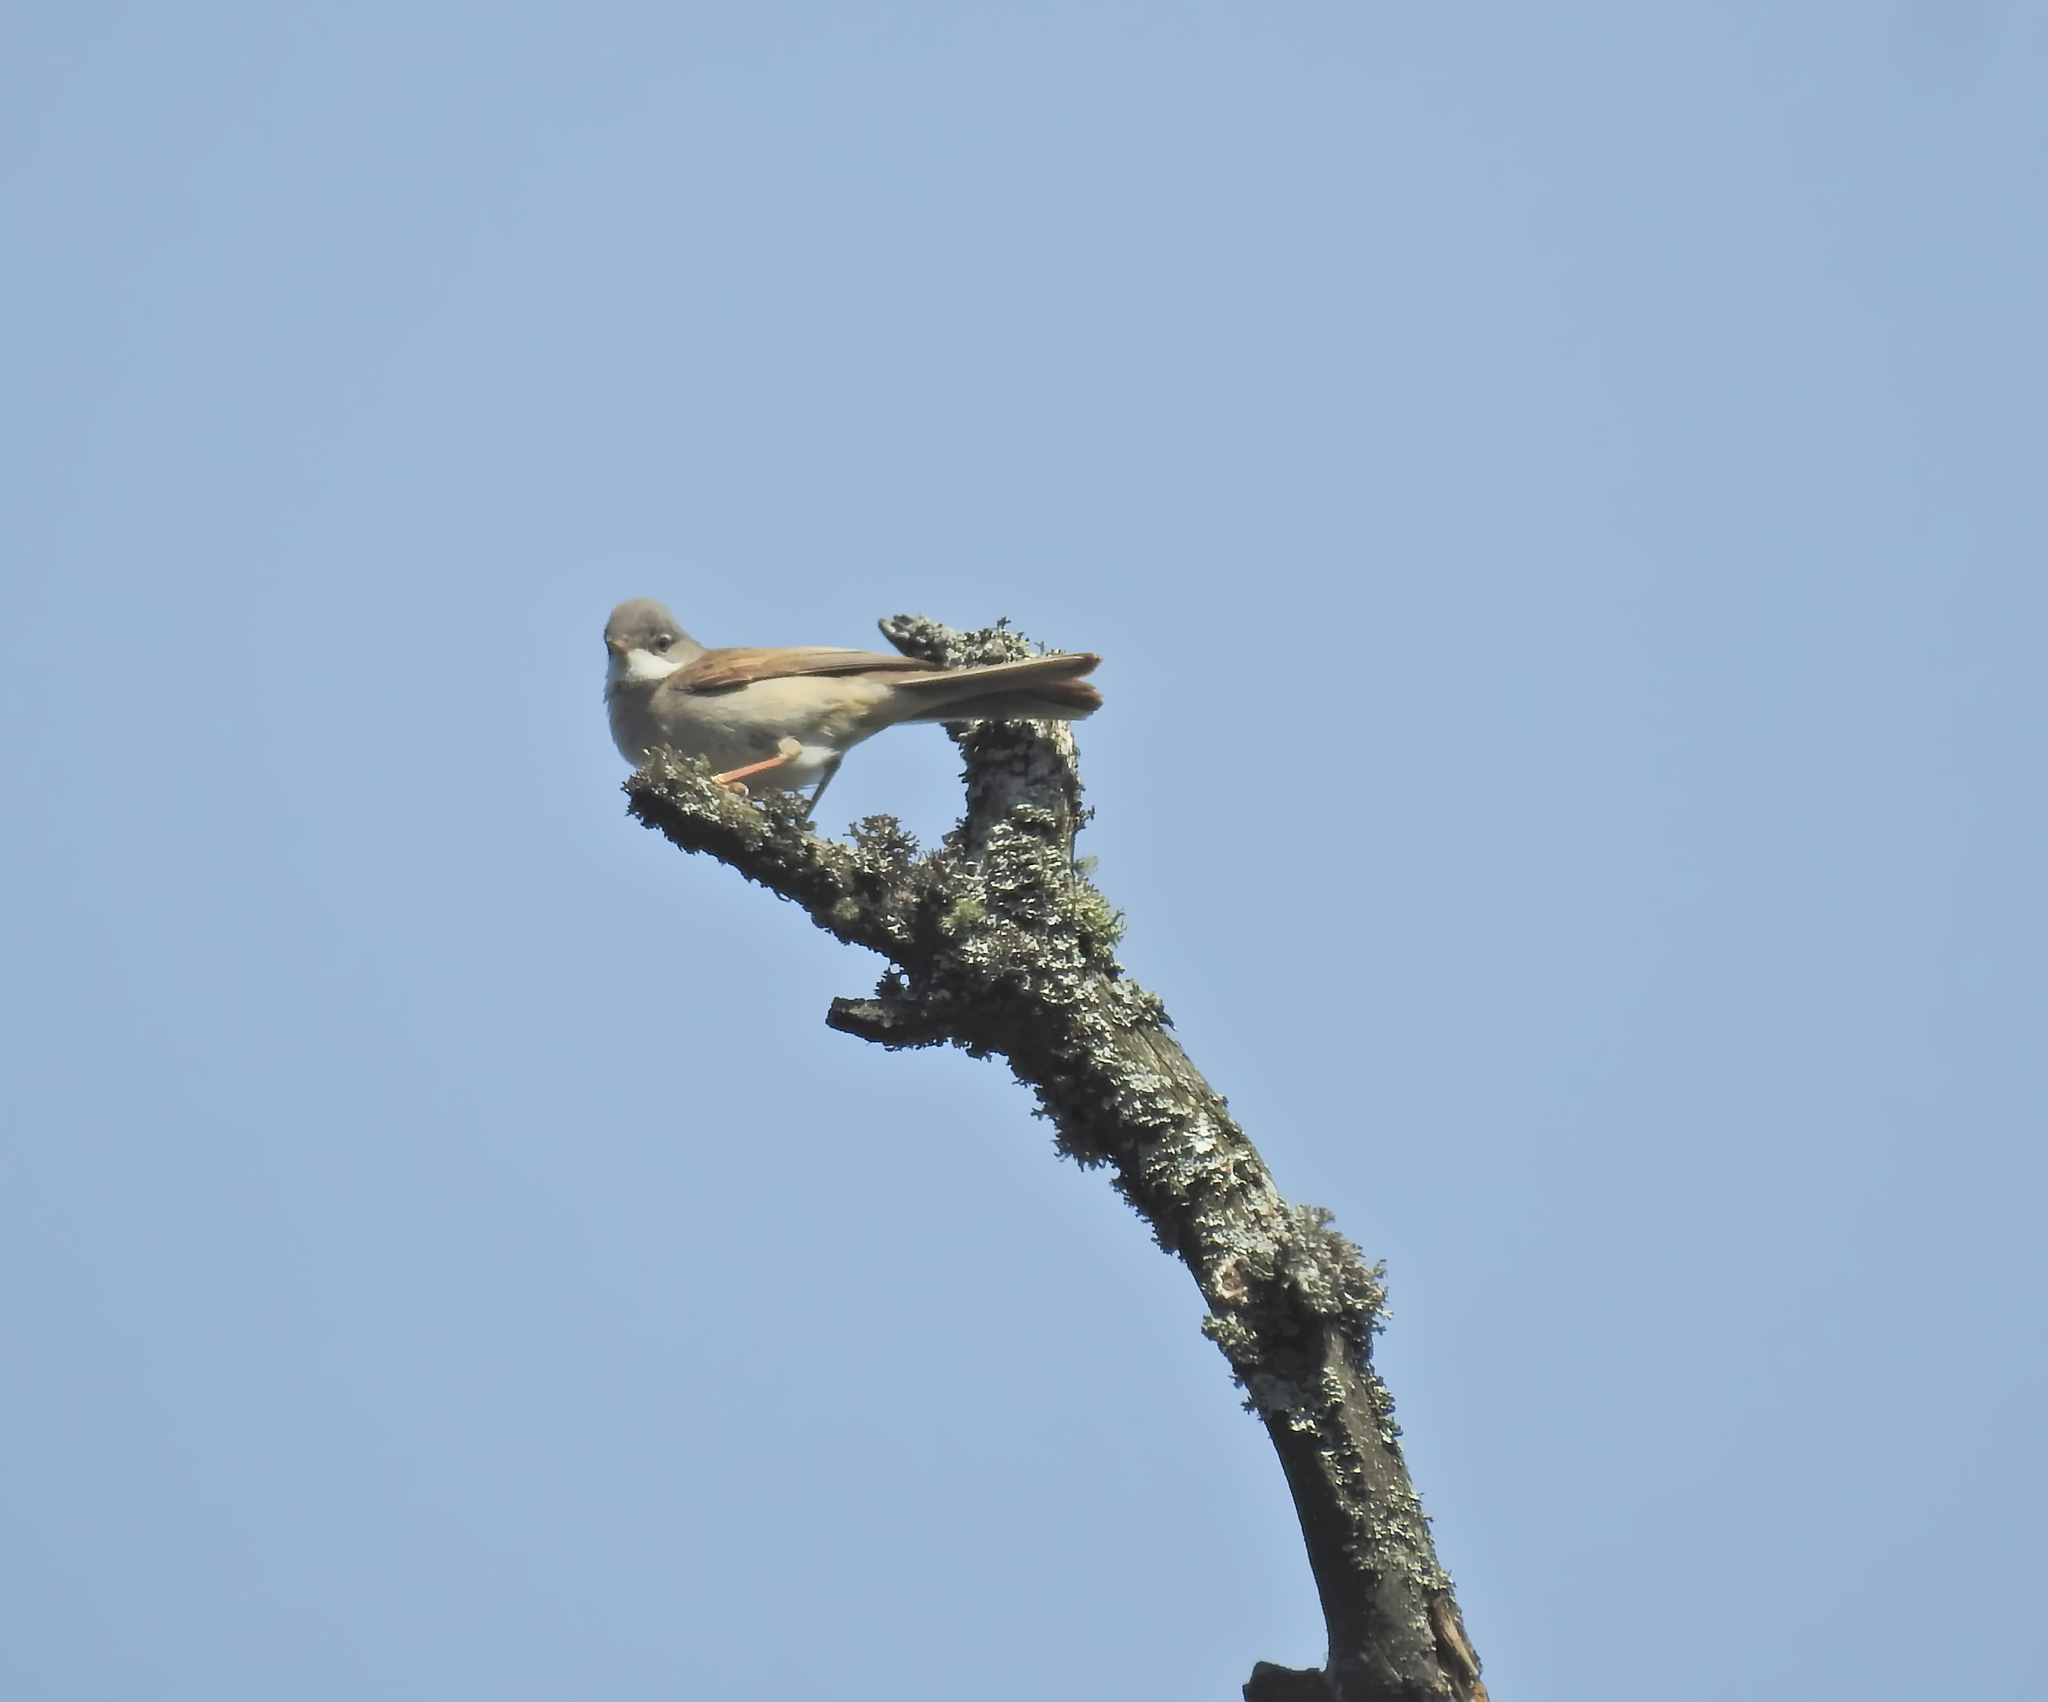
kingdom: Animalia
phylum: Chordata
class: Aves
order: Passeriformes
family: Sylviidae
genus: Sylvia
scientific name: Sylvia communis
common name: Common whitethroat
